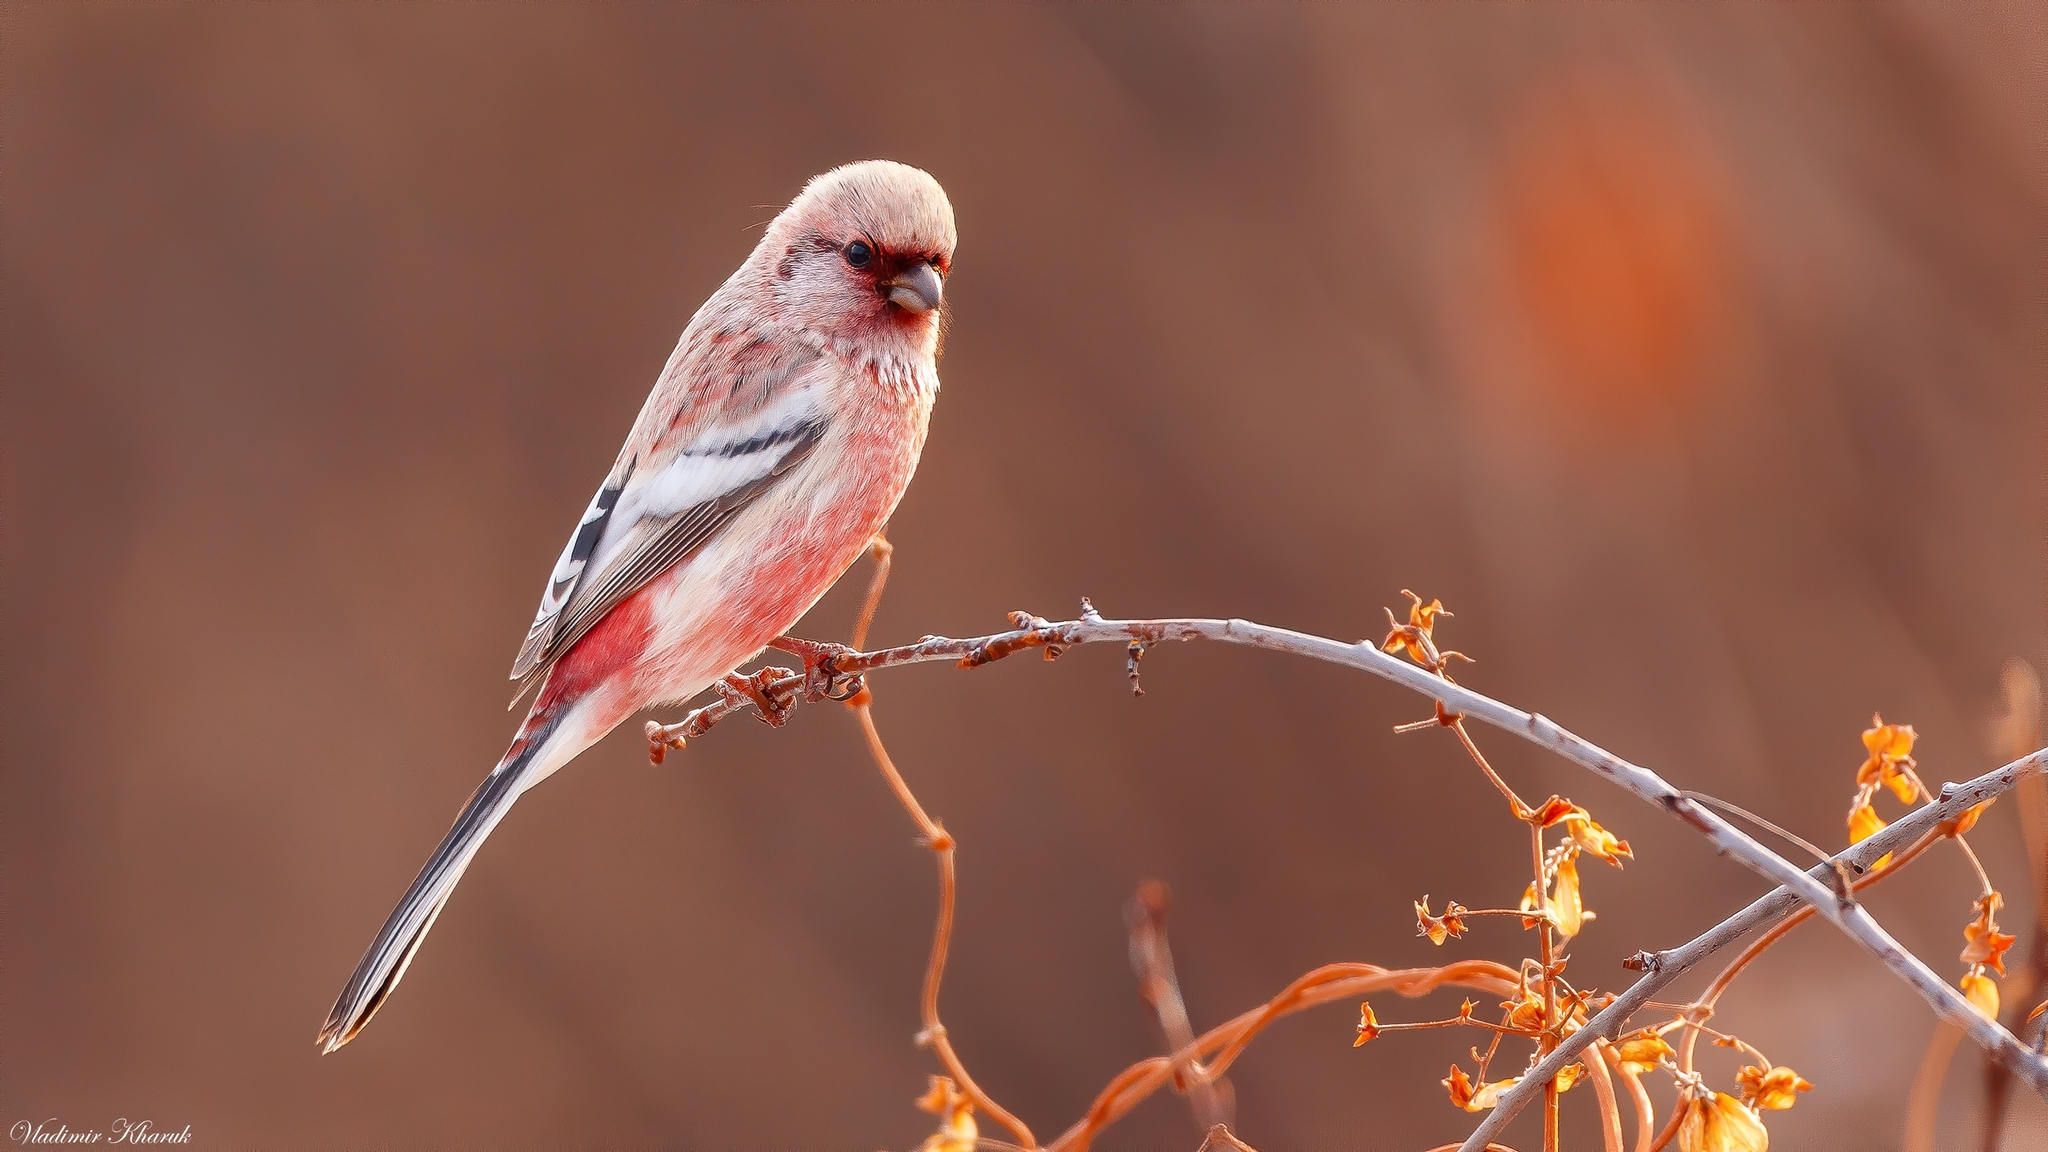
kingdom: Animalia
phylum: Chordata
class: Aves
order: Passeriformes
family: Fringillidae
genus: Carpodacus
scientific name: Carpodacus sibiricus
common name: Long-tailed rosefinch
